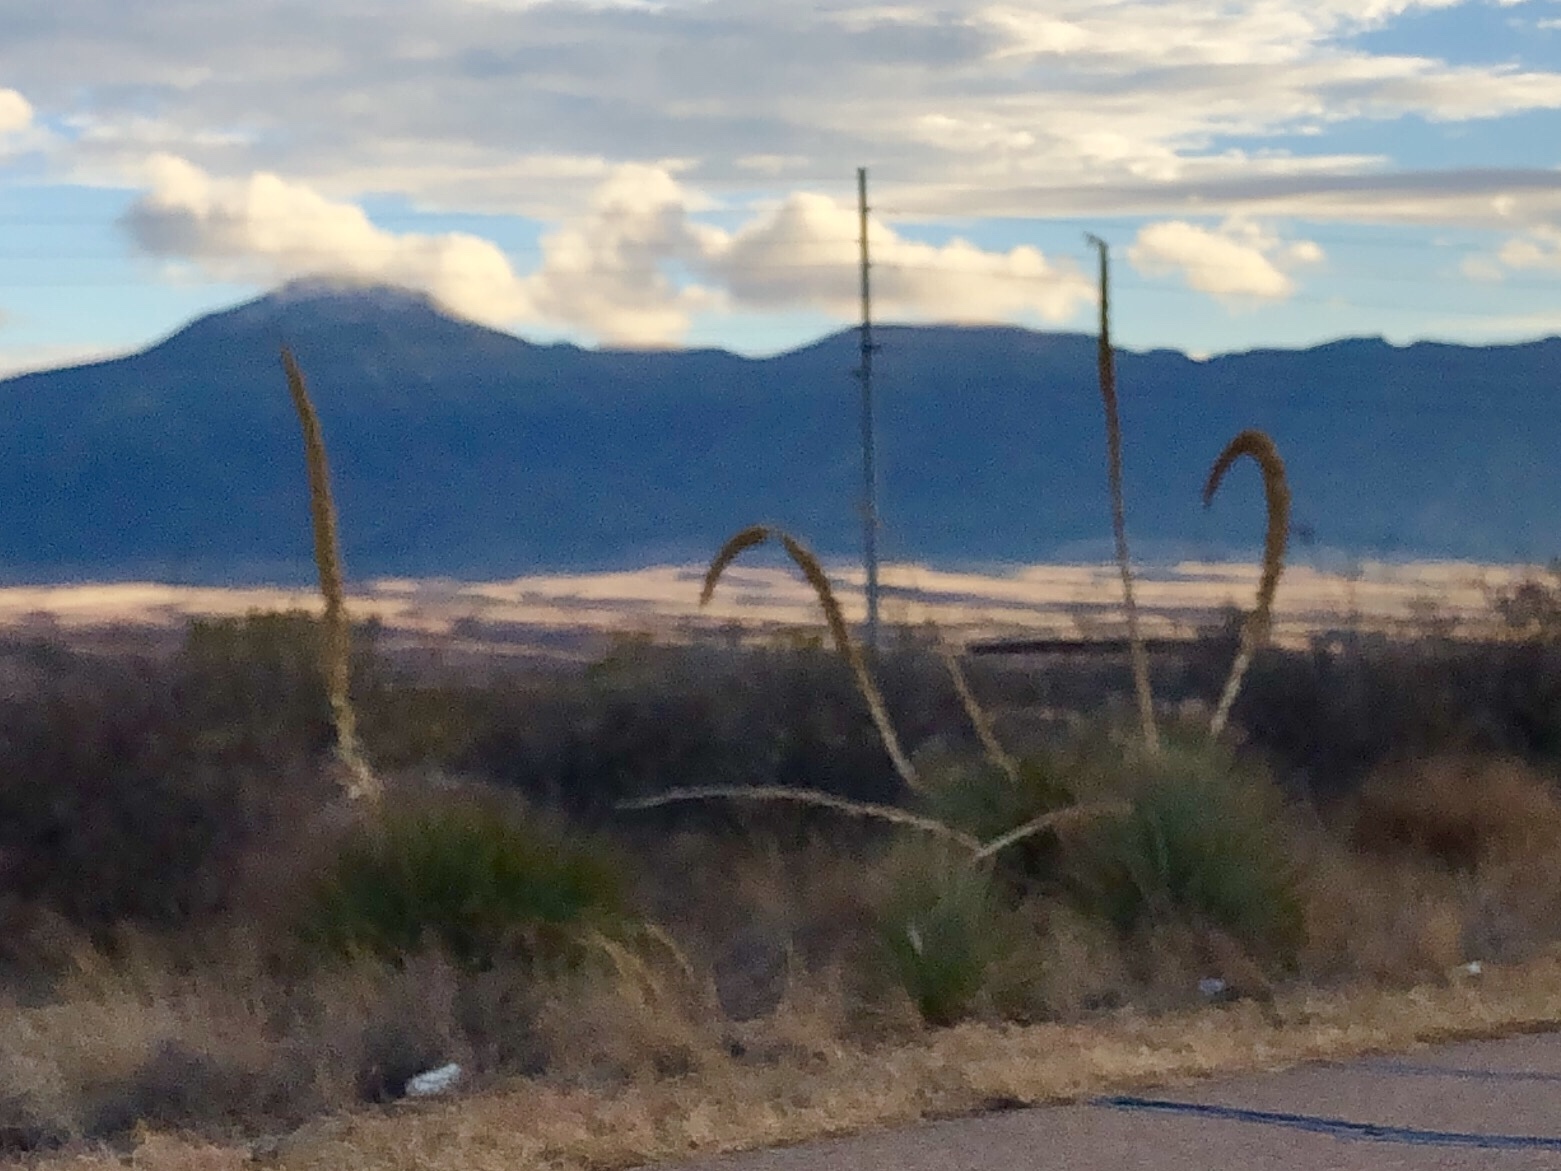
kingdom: Plantae
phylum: Tracheophyta
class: Liliopsida
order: Asparagales
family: Asparagaceae
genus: Dasylirion
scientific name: Dasylirion wheeleri
